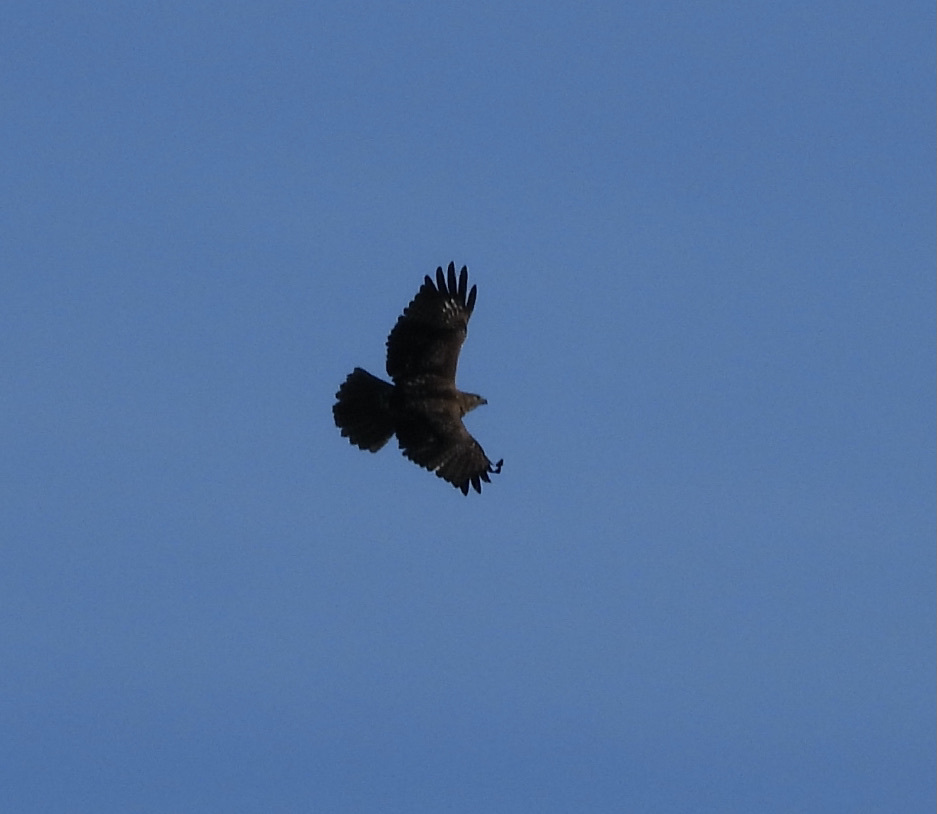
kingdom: Animalia
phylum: Chordata
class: Aves
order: Accipitriformes
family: Accipitridae
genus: Buteo
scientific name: Buteo jamaicensis
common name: Red-tailed hawk
